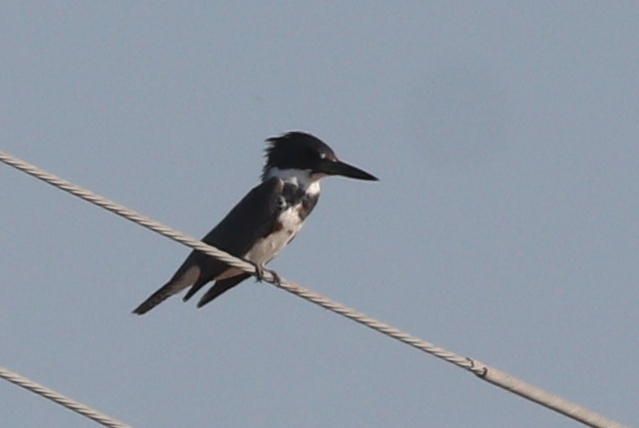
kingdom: Animalia
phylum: Chordata
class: Aves
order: Coraciiformes
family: Alcedinidae
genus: Megaceryle
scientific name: Megaceryle alcyon
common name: Belted kingfisher
